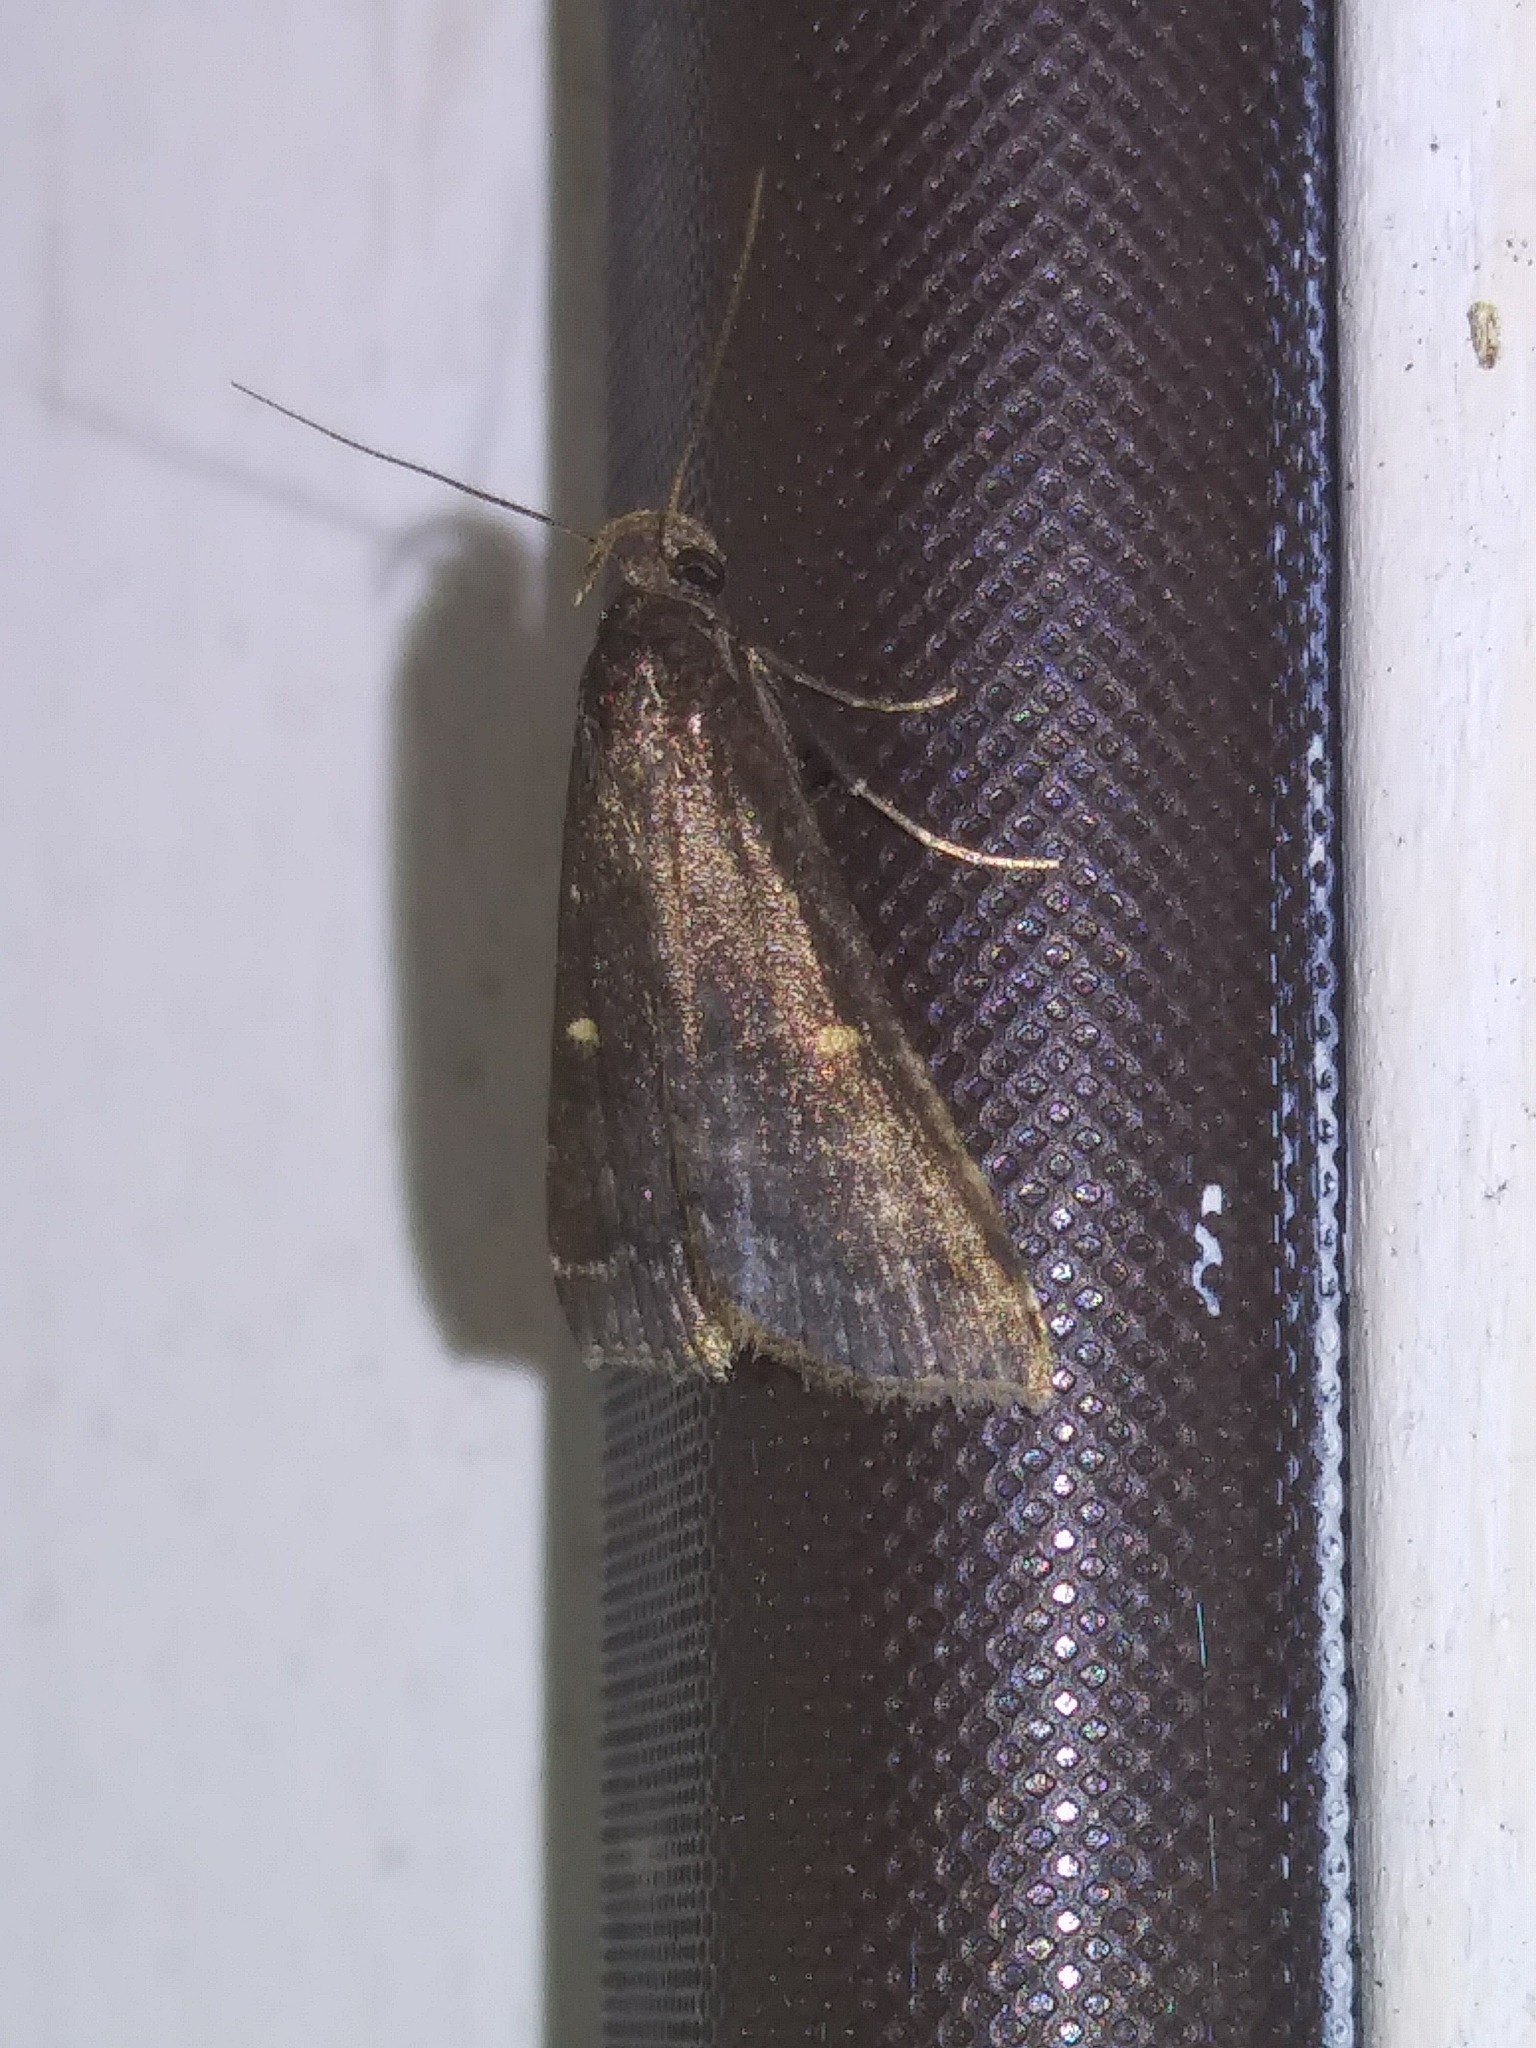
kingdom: Animalia
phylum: Arthropoda
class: Insecta
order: Lepidoptera
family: Erebidae
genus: Tetanolita
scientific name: Tetanolita mynesalis
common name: Smoky tetanolita moth
